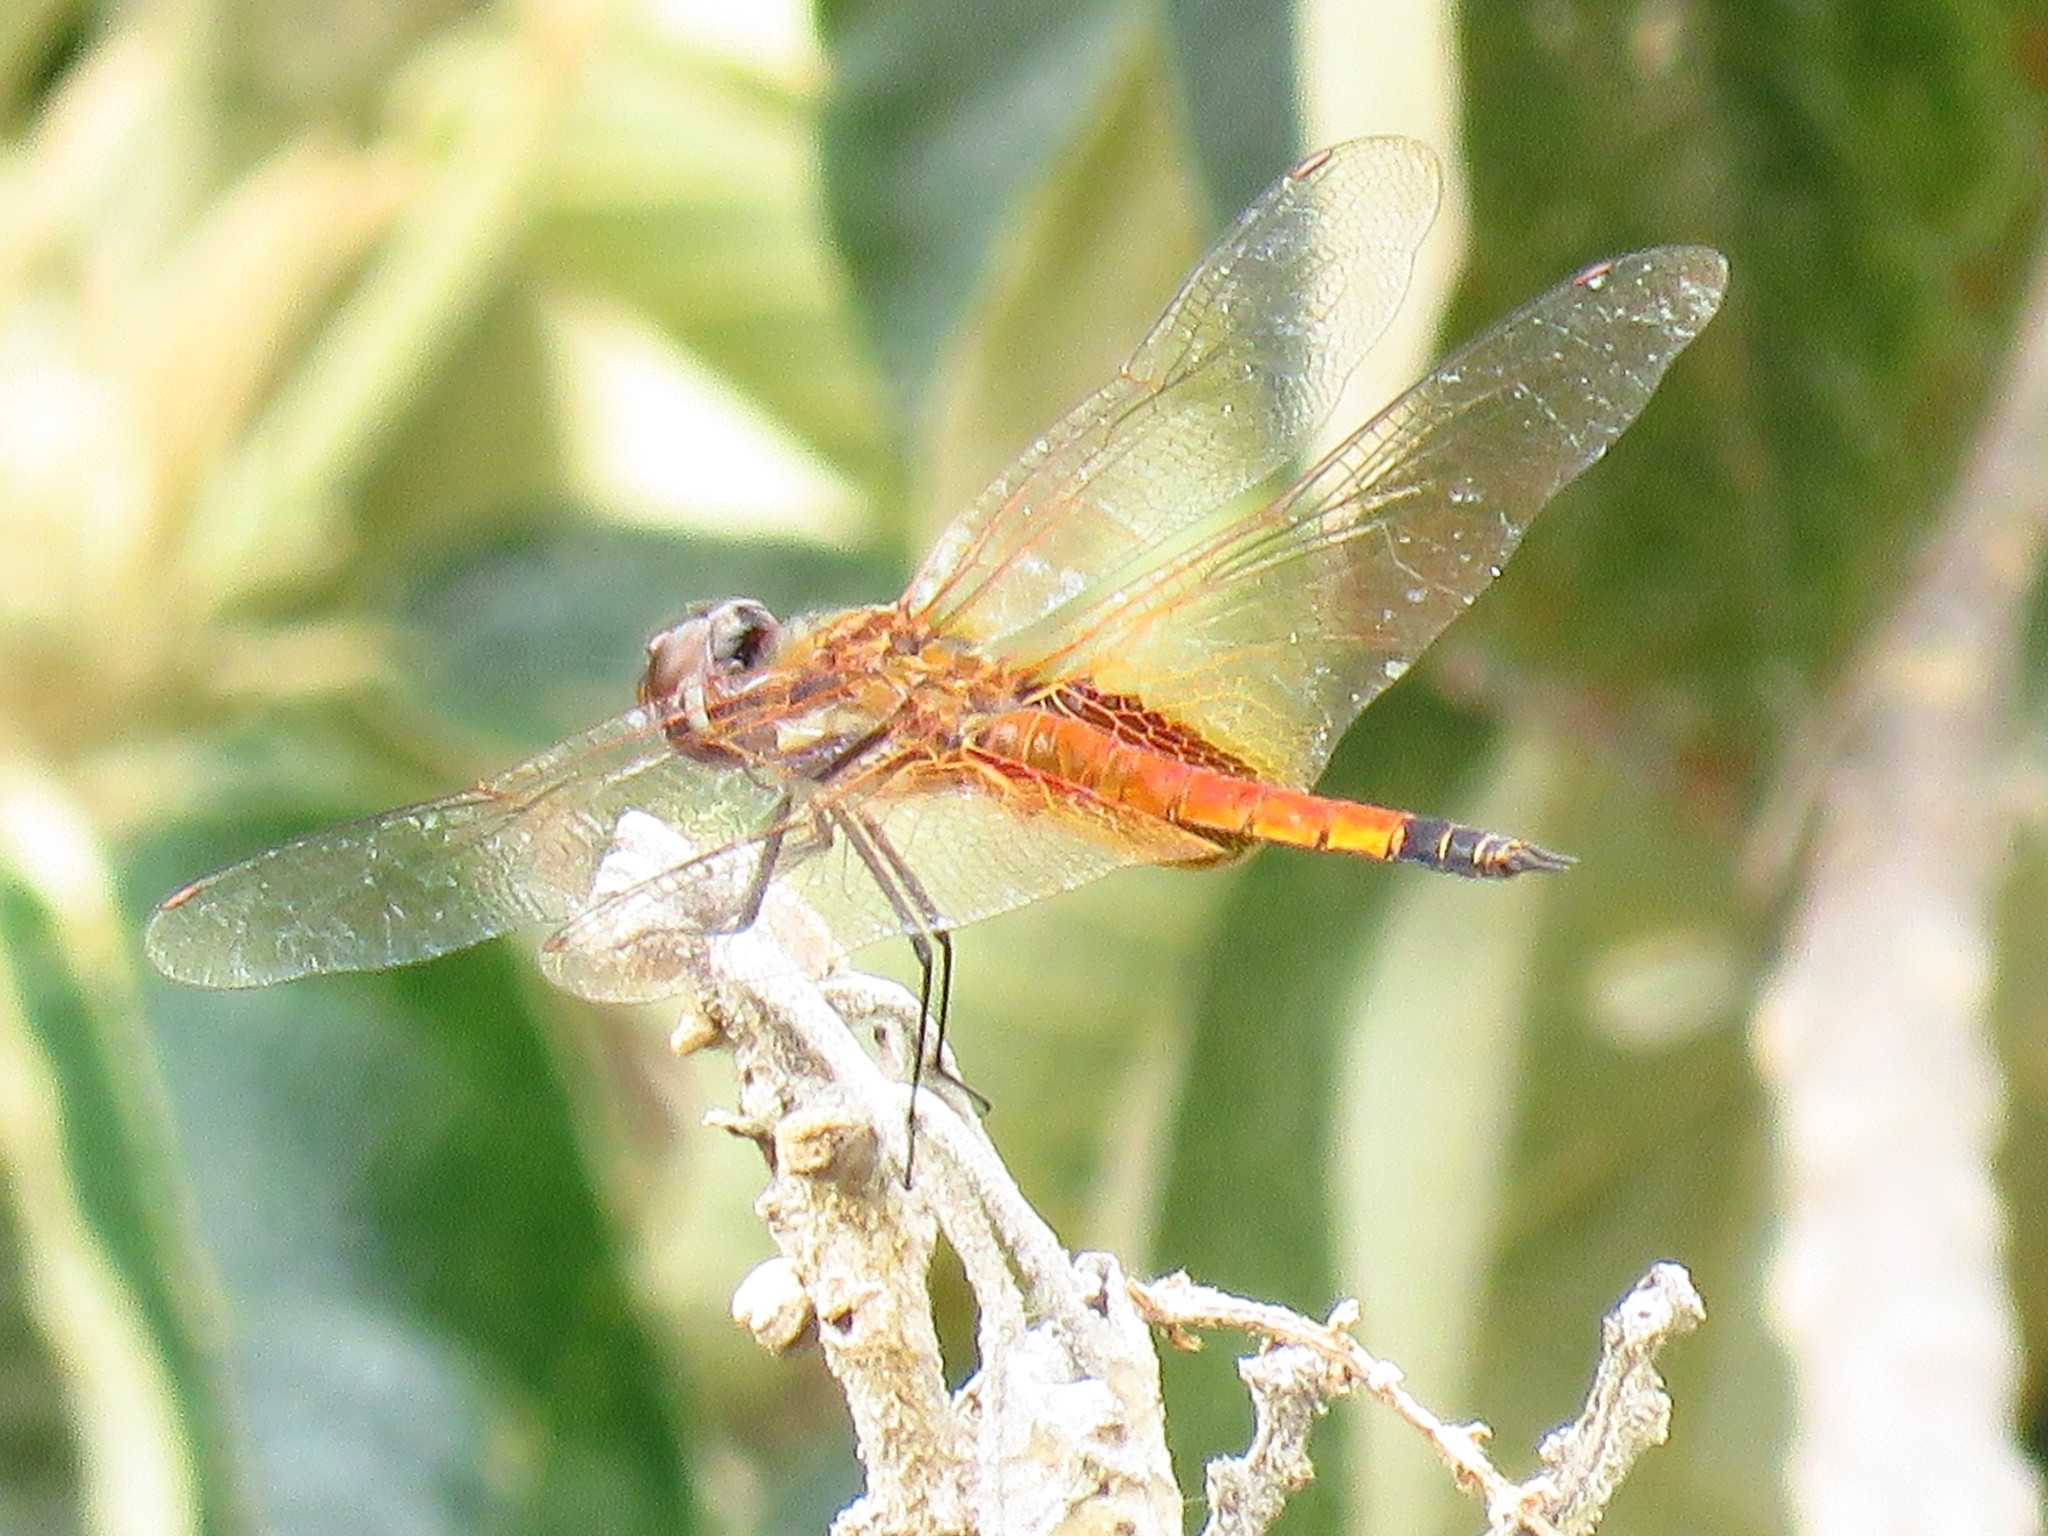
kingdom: Animalia
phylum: Arthropoda
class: Insecta
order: Odonata
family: Libellulidae
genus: Tramea
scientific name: Tramea darwini
